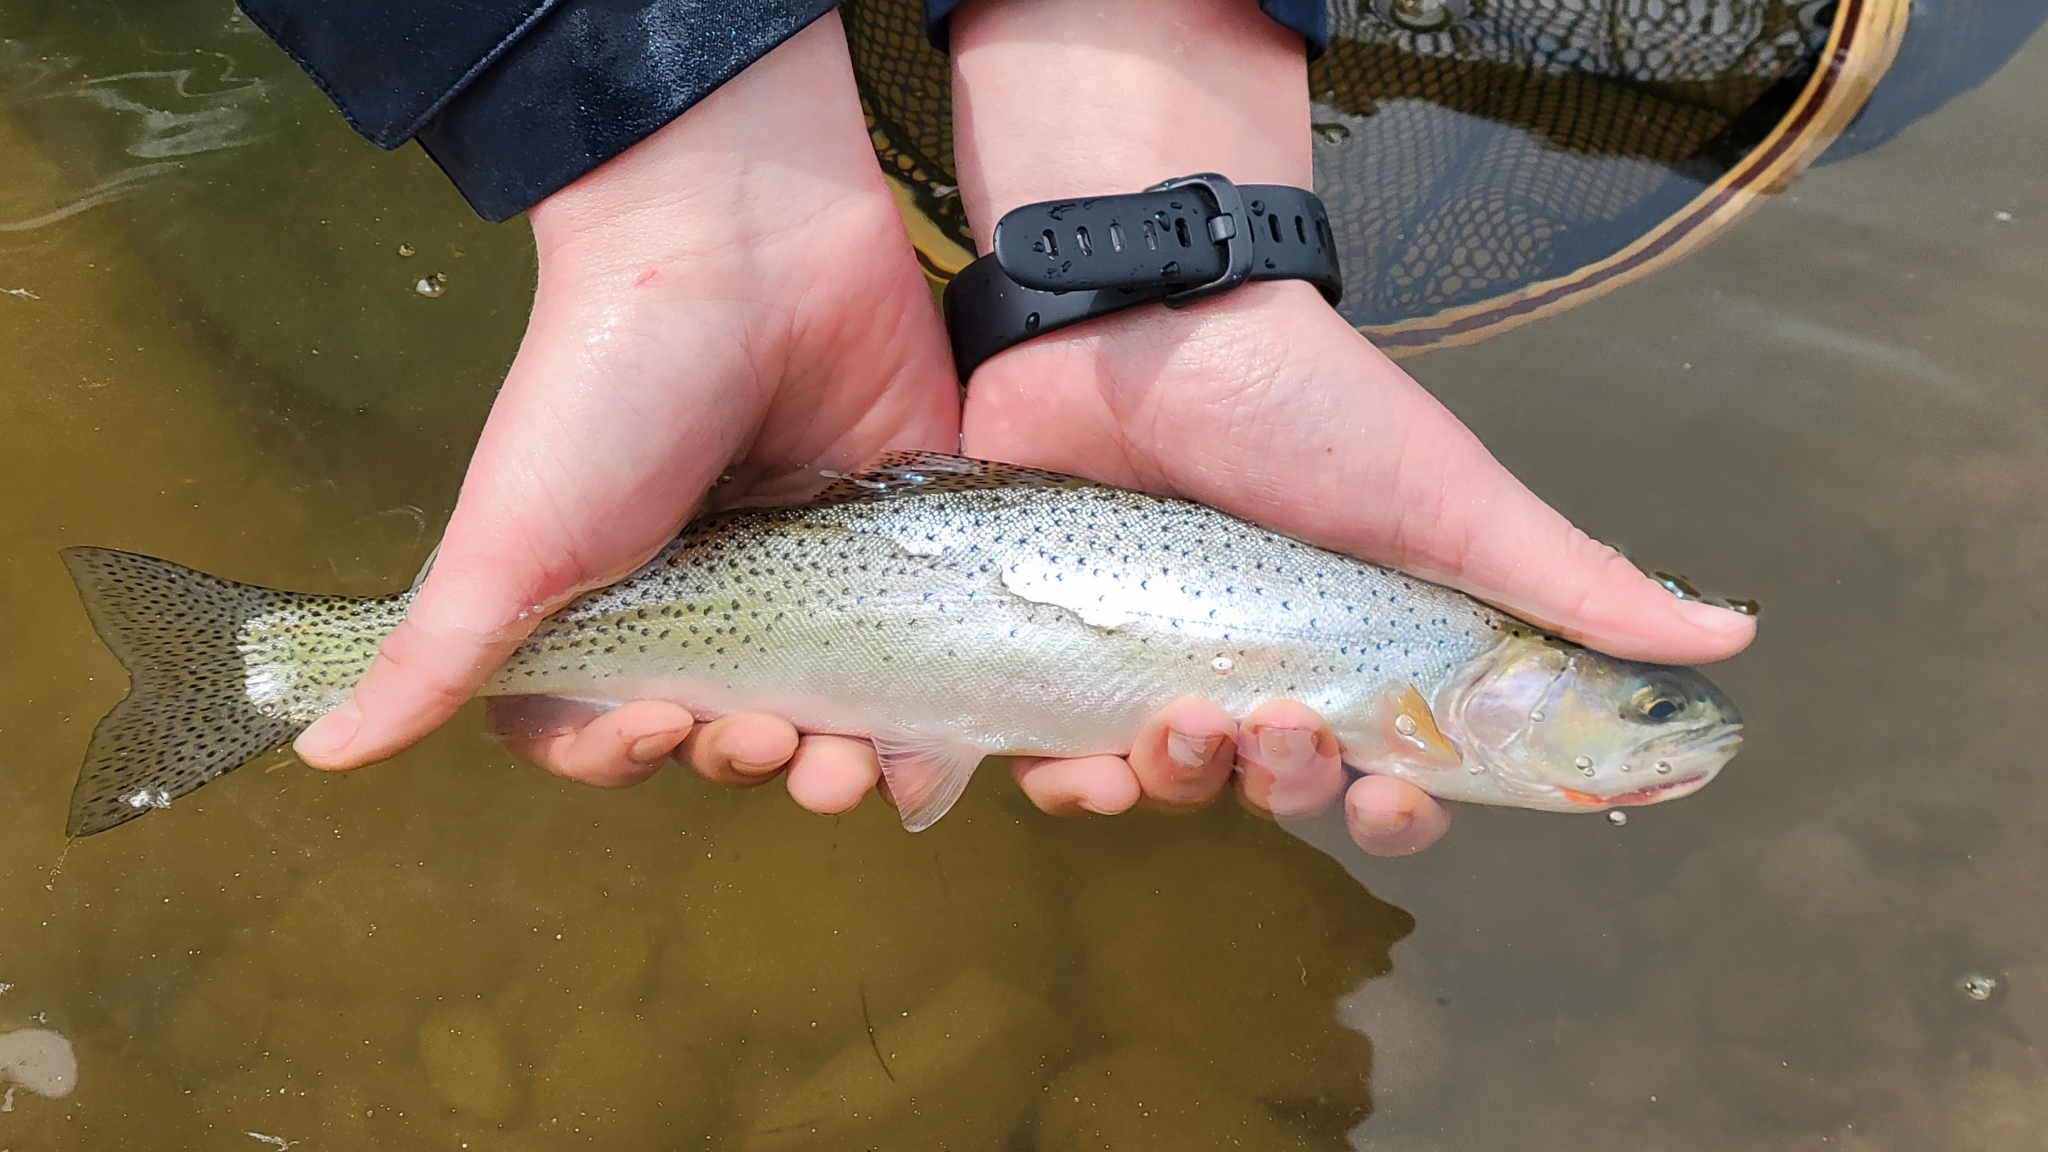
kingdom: Animalia
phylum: Chordata
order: Salmoniformes
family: Salmonidae
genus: Oncorhynchus
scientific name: Oncorhynchus
